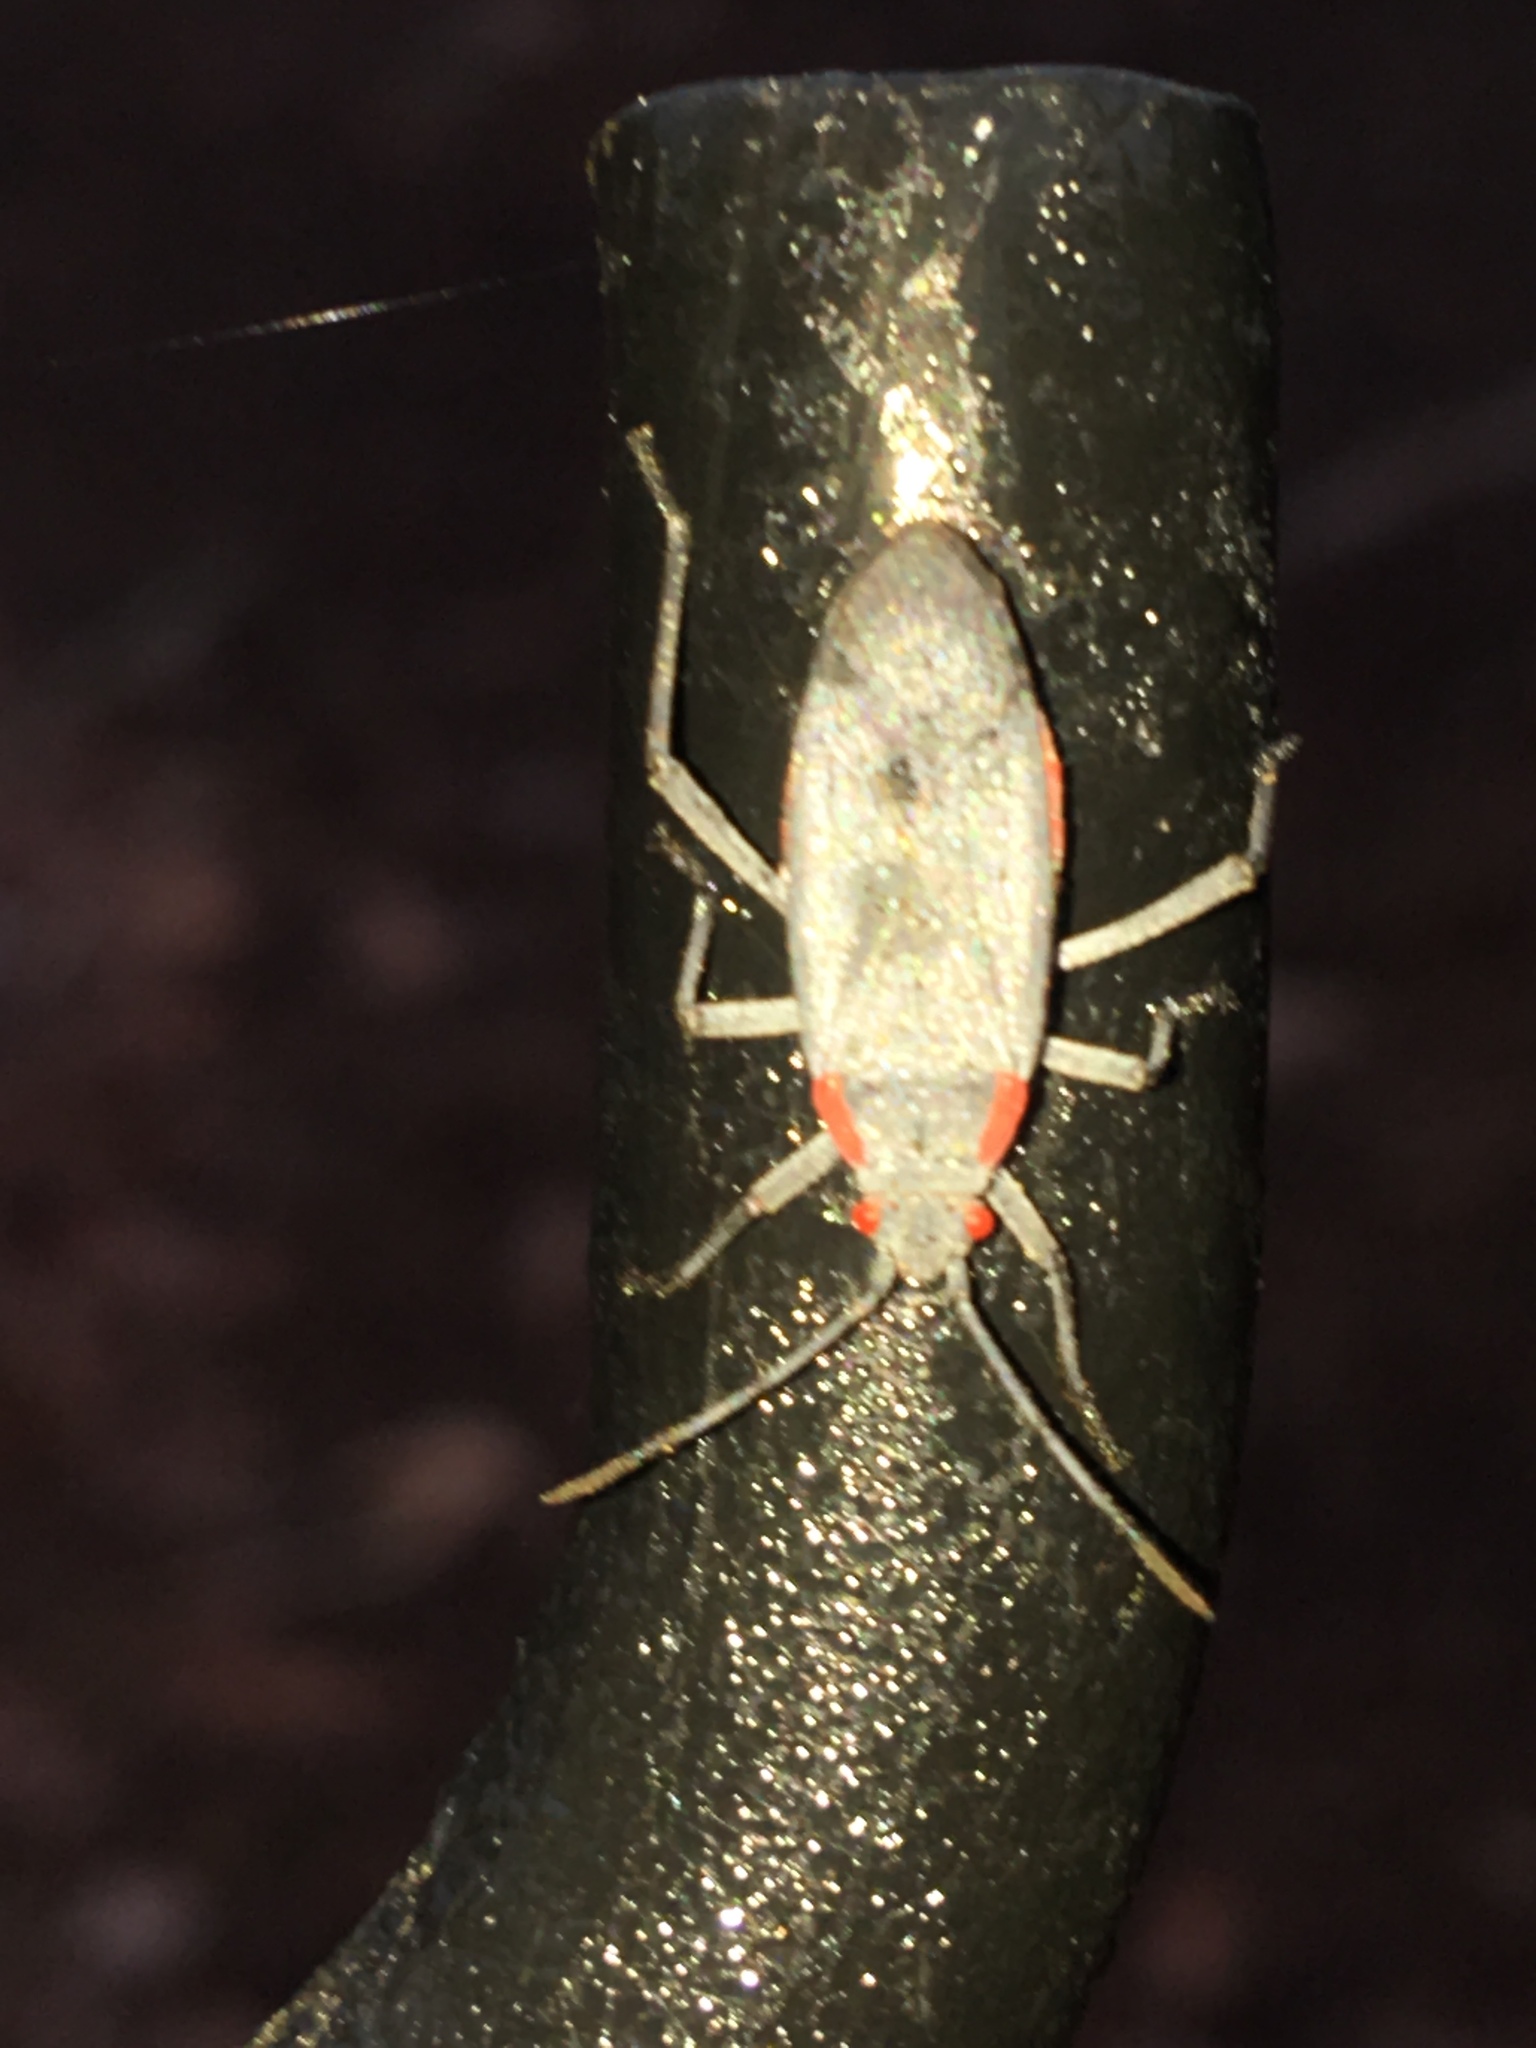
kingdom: Animalia
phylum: Arthropoda
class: Insecta
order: Hemiptera
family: Rhopalidae
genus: Jadera
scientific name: Jadera haematoloma
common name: Red-shouldered bug
